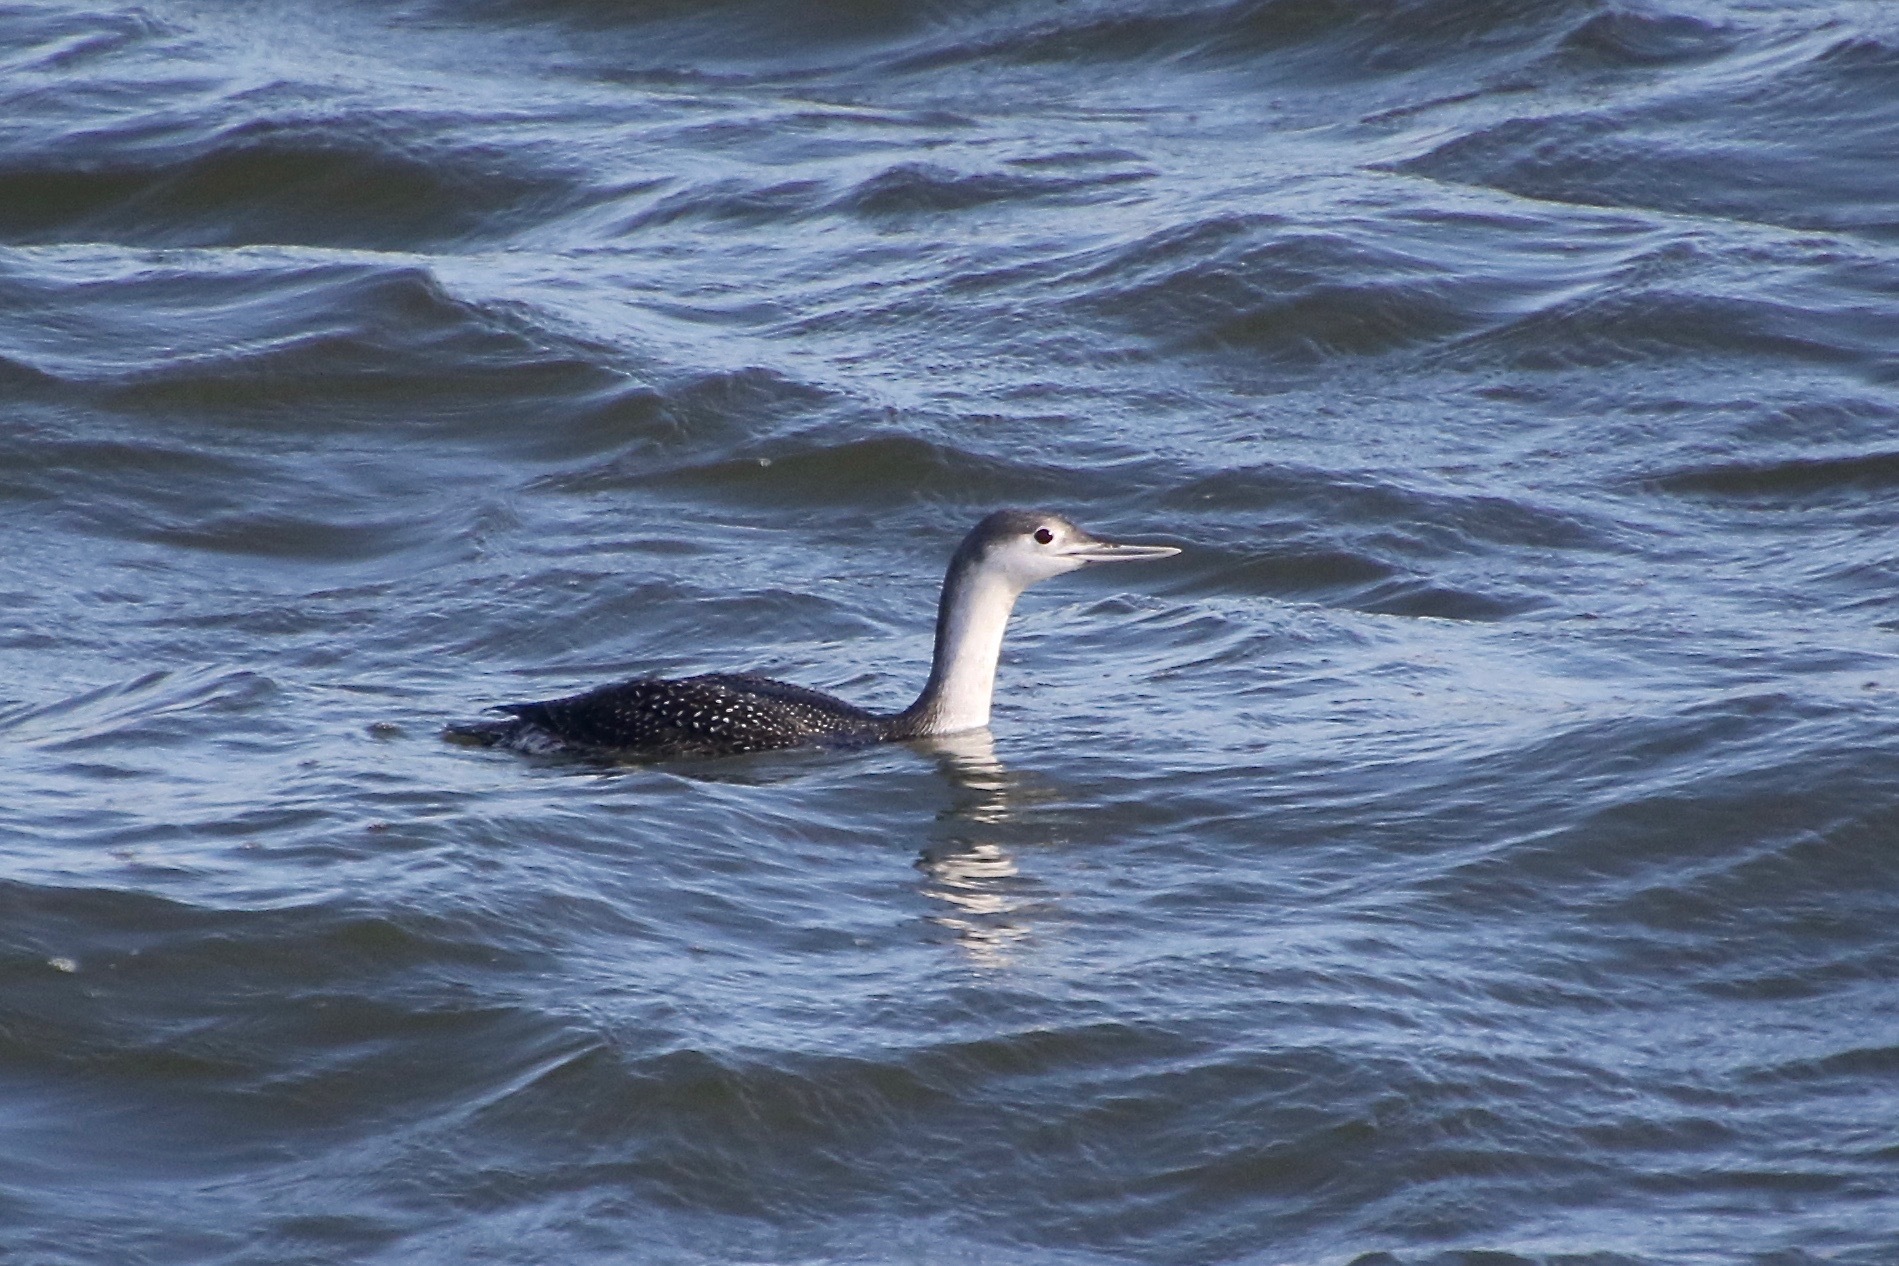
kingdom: Animalia
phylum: Chordata
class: Aves
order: Gaviiformes
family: Gaviidae
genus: Gavia
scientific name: Gavia stellata
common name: Red-throated loon
